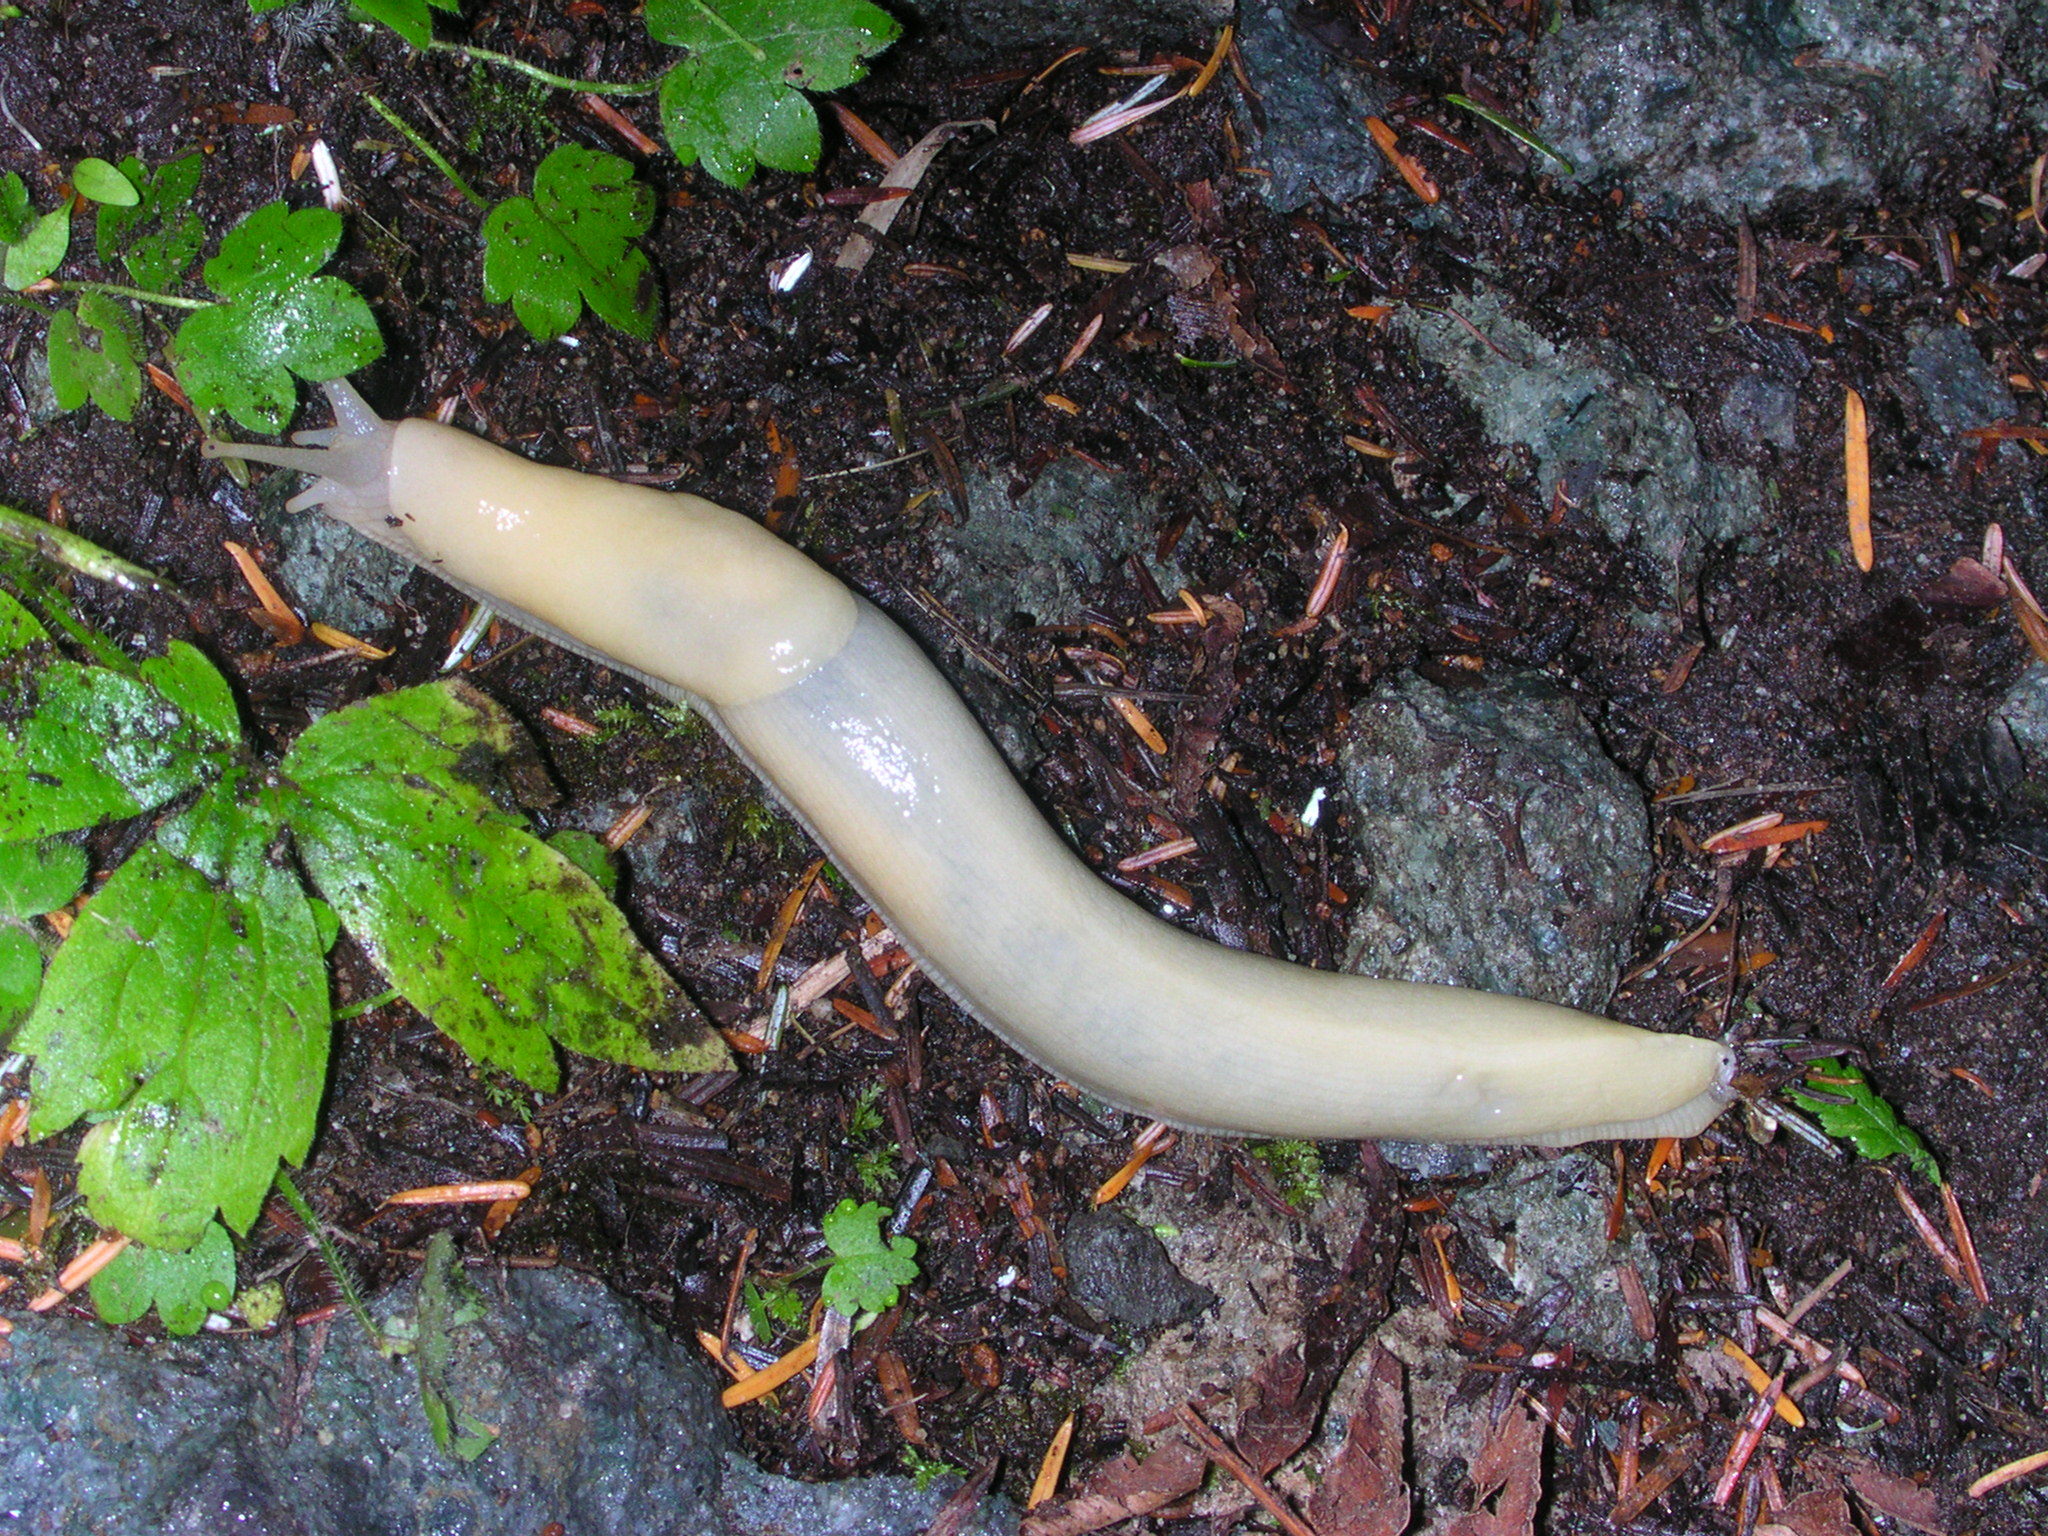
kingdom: Animalia
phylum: Mollusca
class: Gastropoda
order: Stylommatophora
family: Ariolimacidae
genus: Ariolimax
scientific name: Ariolimax columbianus
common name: Pacific banana slug
